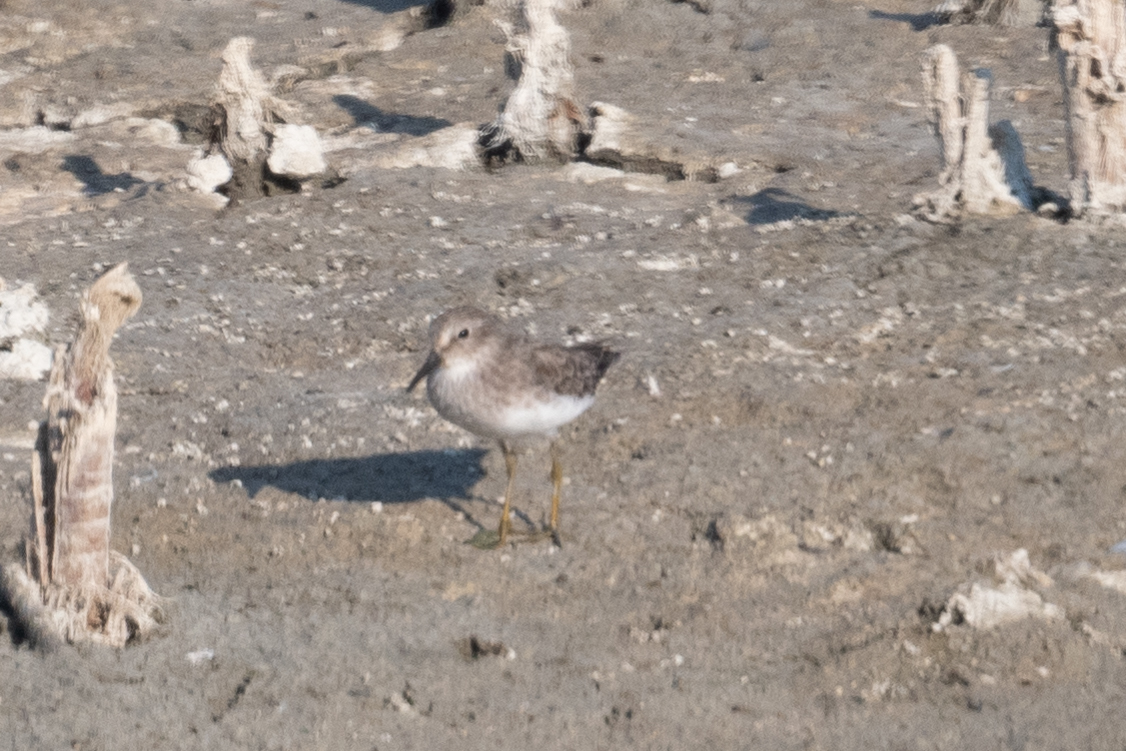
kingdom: Animalia
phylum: Chordata
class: Aves
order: Charadriiformes
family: Scolopacidae
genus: Calidris
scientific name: Calidris minutilla
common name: Least sandpiper
